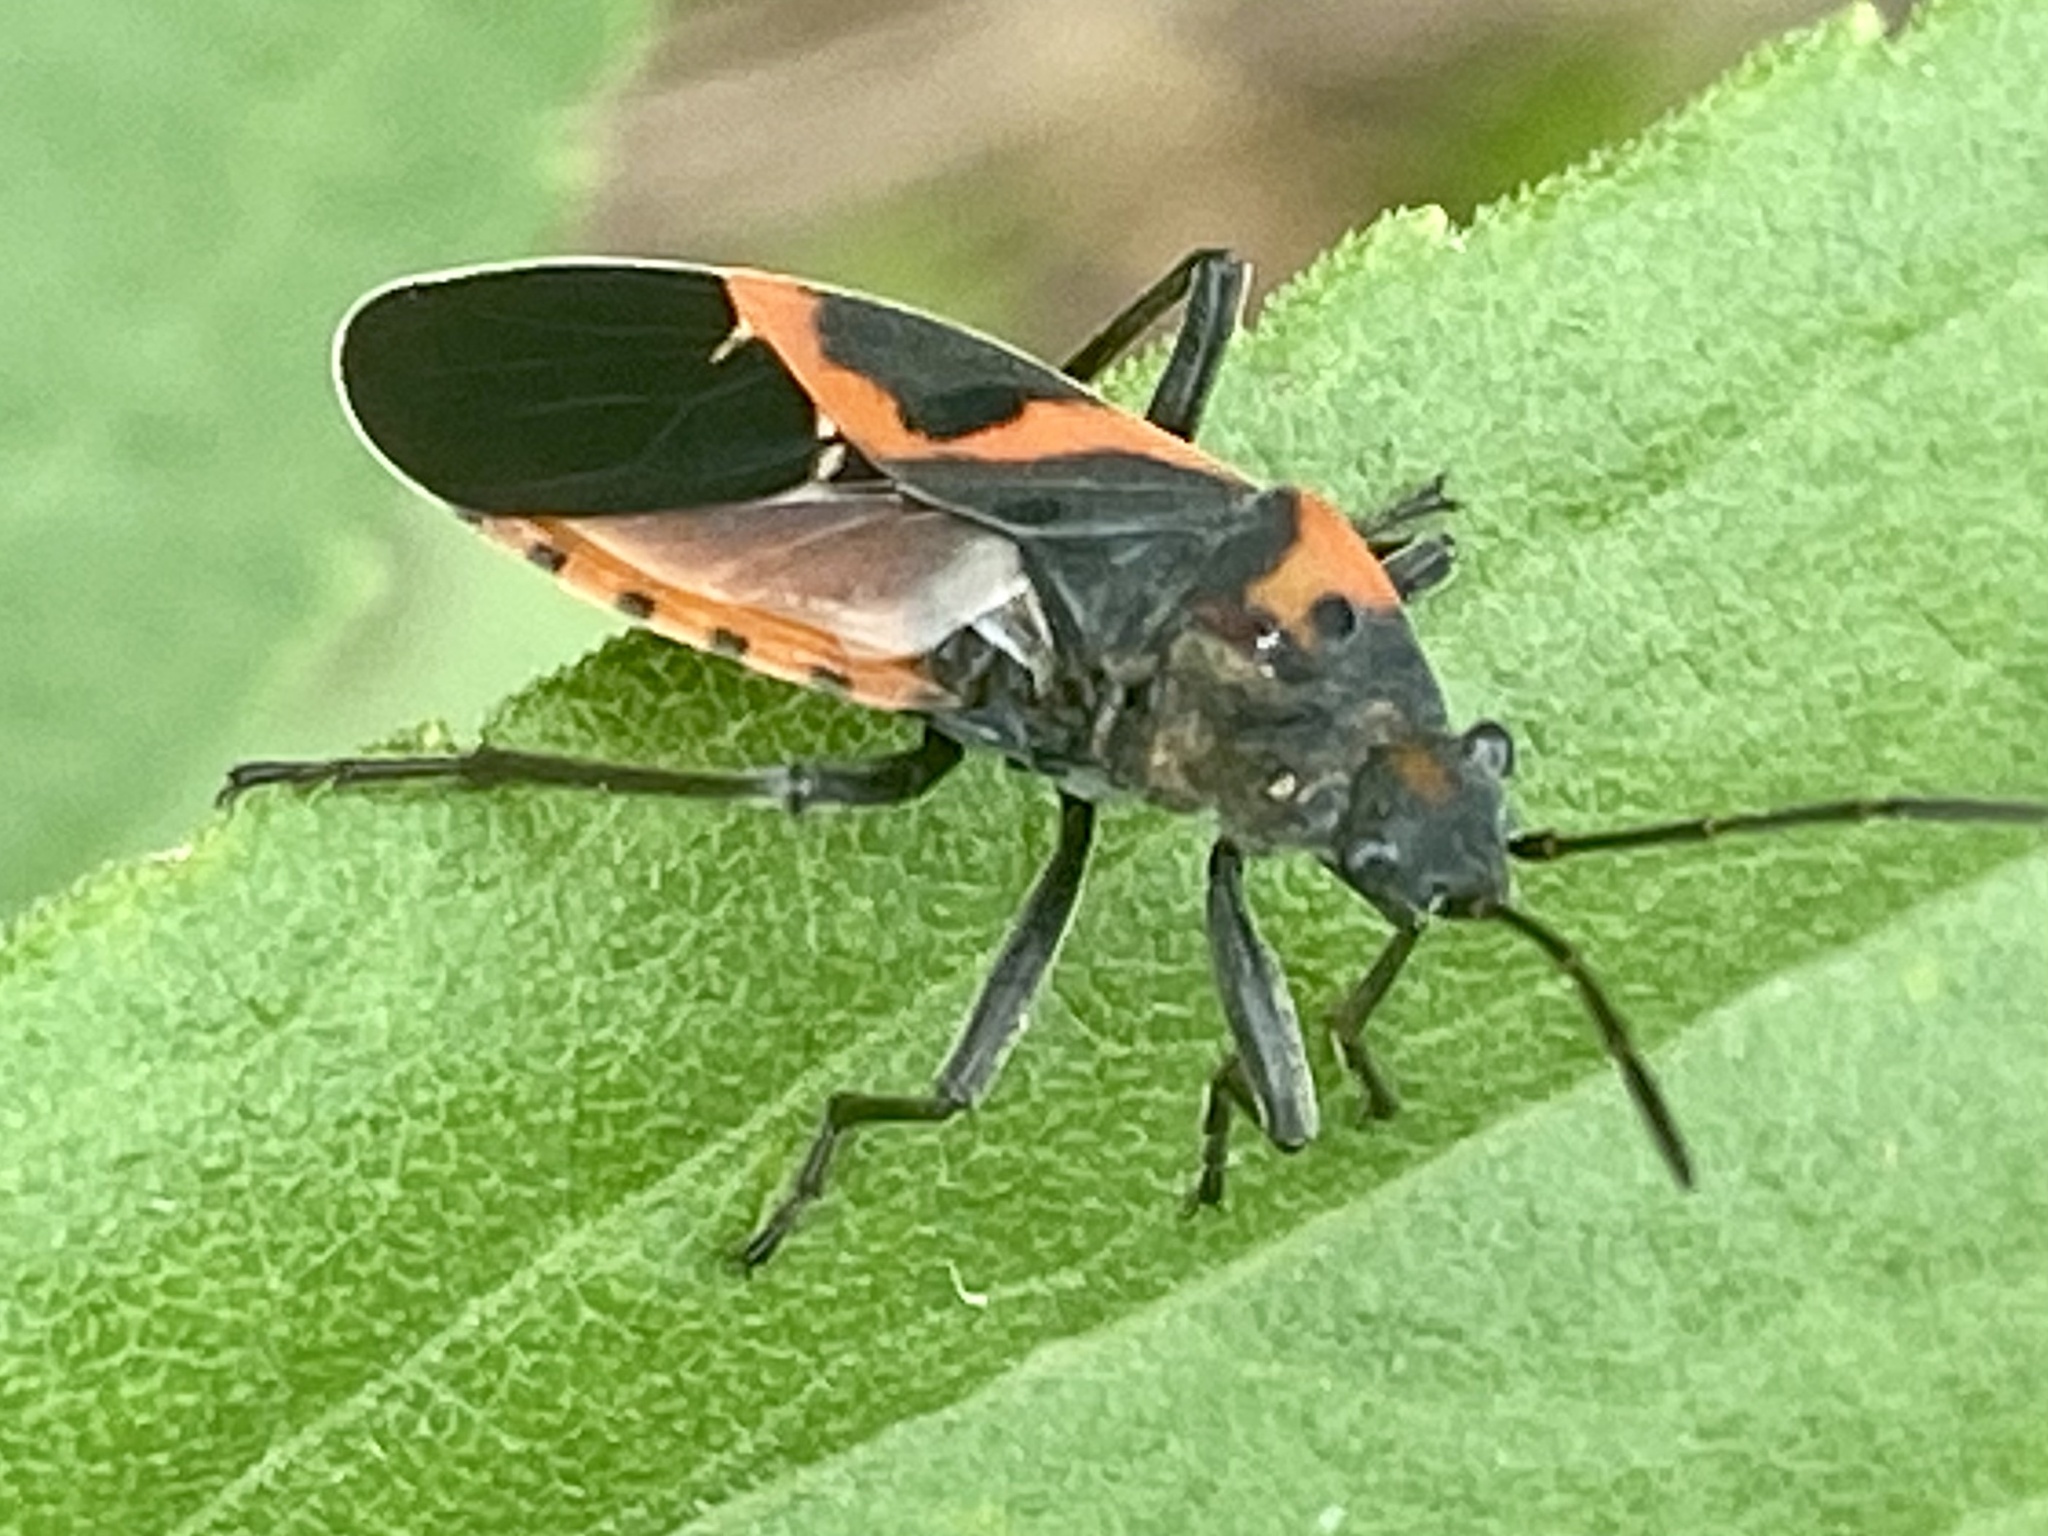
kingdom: Animalia
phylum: Arthropoda
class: Insecta
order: Hemiptera
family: Lygaeidae
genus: Lygaeus
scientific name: Lygaeus kalmii
